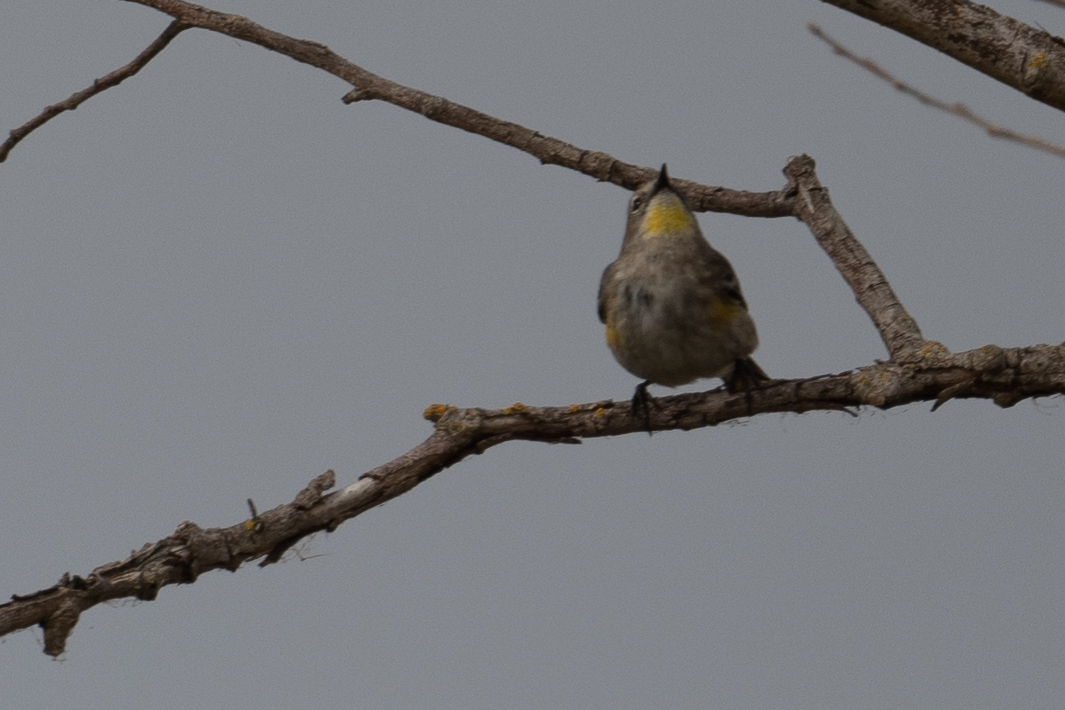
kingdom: Animalia
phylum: Chordata
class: Aves
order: Passeriformes
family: Parulidae
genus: Setophaga
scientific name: Setophaga coronata
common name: Myrtle warbler
